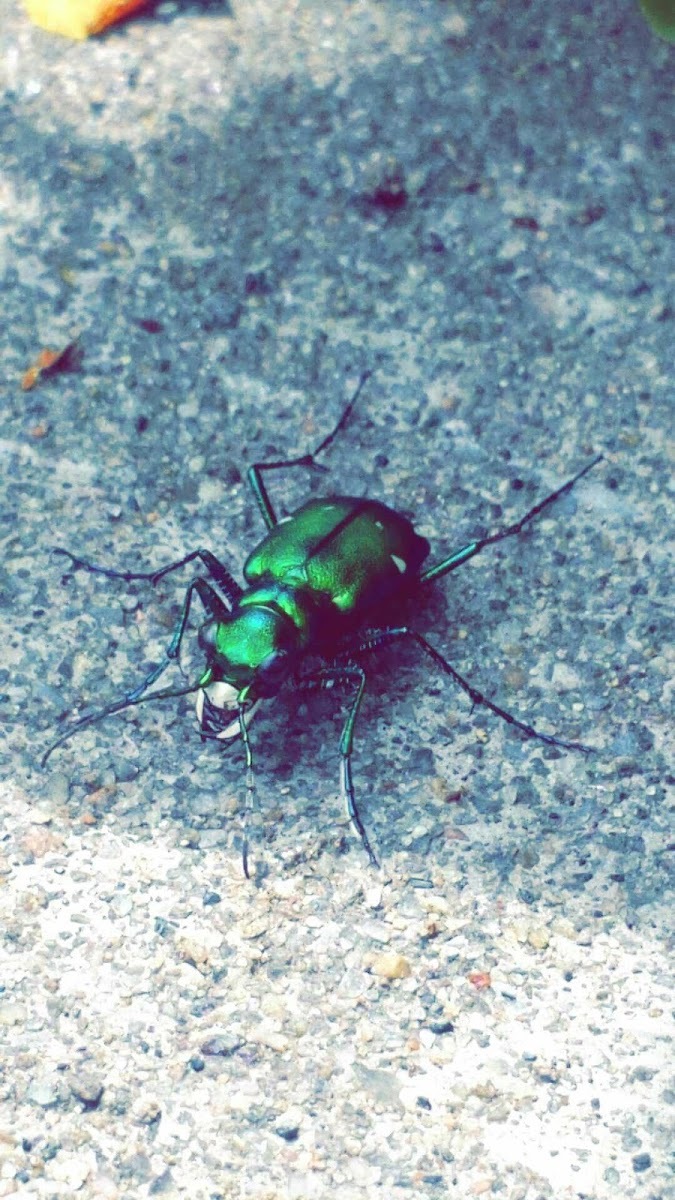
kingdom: Animalia
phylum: Arthropoda
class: Insecta
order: Coleoptera
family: Carabidae
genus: Cicindela
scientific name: Cicindela sexguttata
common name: Six-spotted tiger beetle
